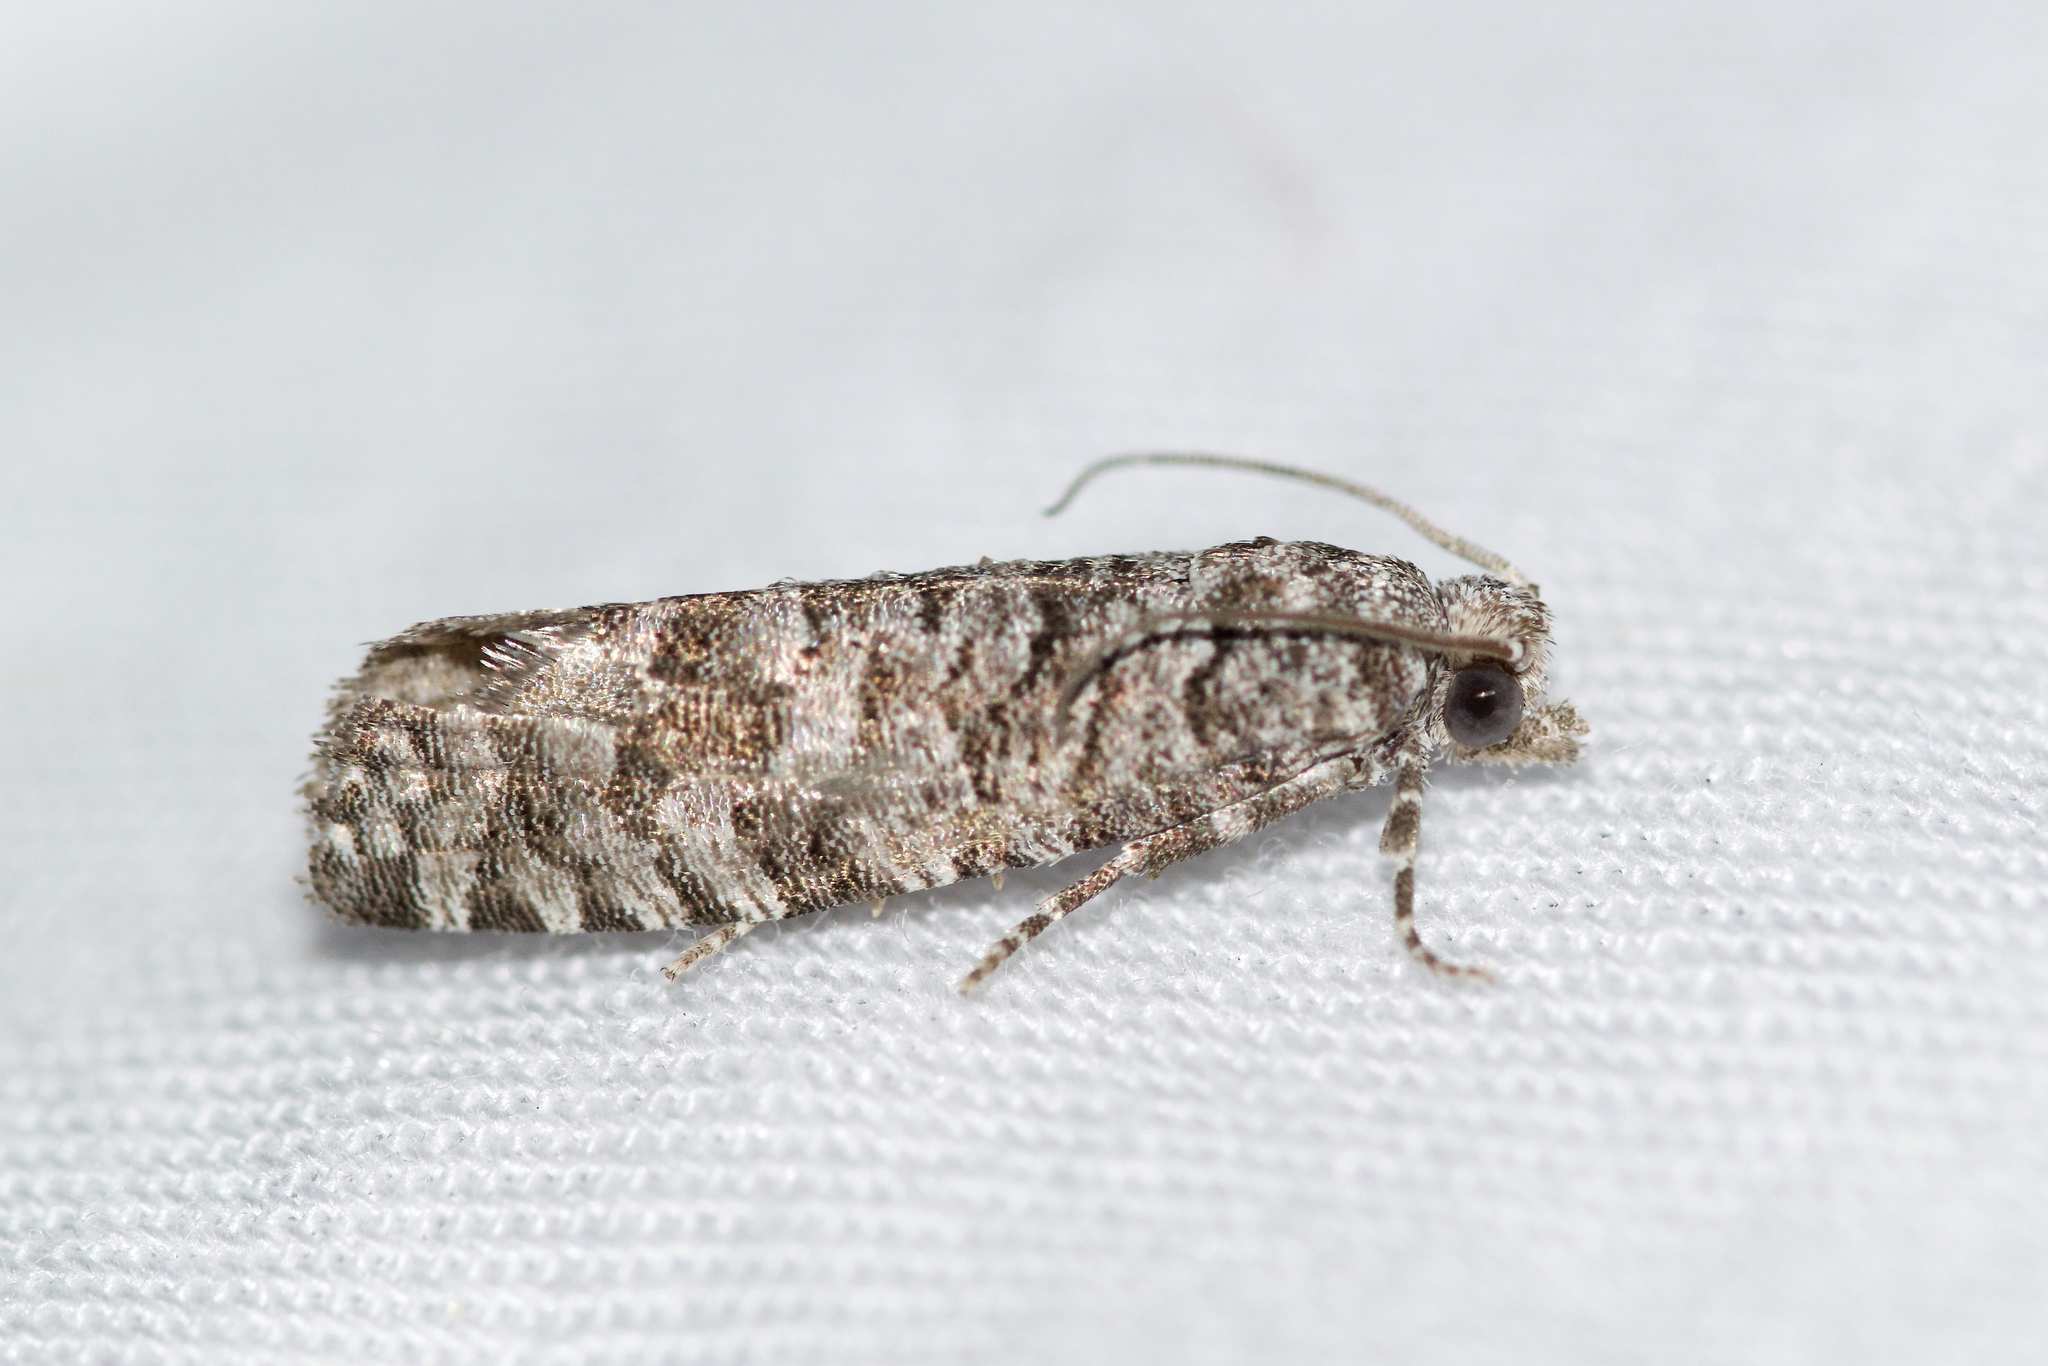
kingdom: Animalia
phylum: Arthropoda
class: Insecta
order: Lepidoptera
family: Tortricidae
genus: Retinia
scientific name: Retinia gemistrigulana
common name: Gray retinia moth
